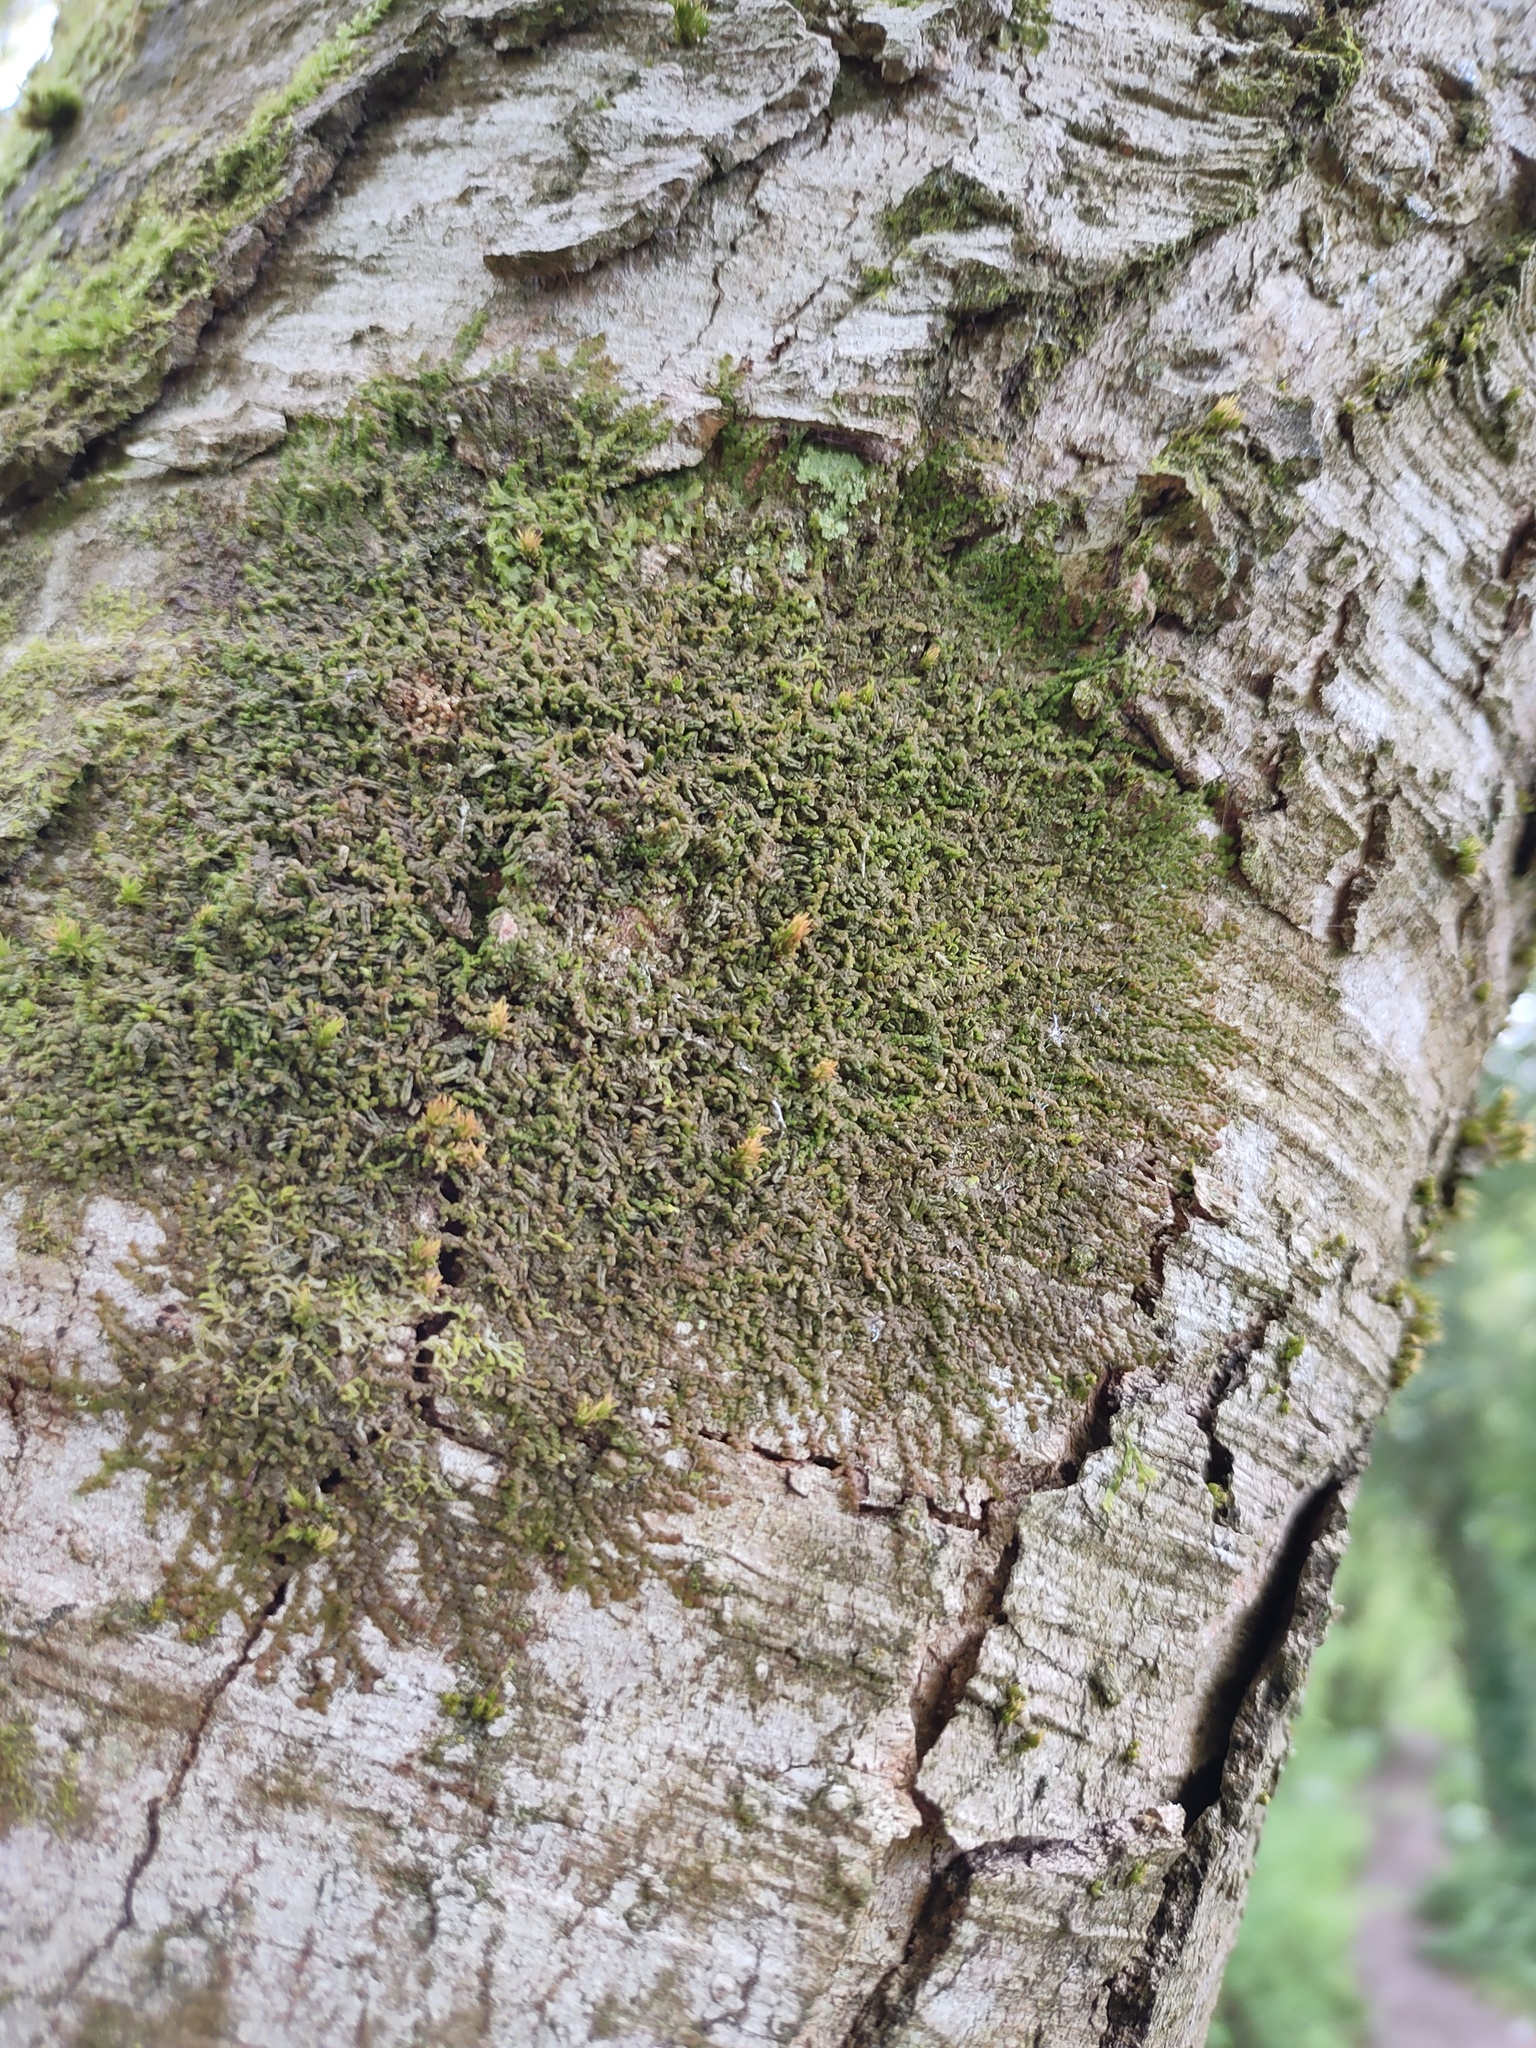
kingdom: Plantae
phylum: Marchantiophyta
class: Jungermanniopsida
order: Porellales
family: Frullaniaceae
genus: Frullania
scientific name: Frullania dilatata
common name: Dilated scalewort
